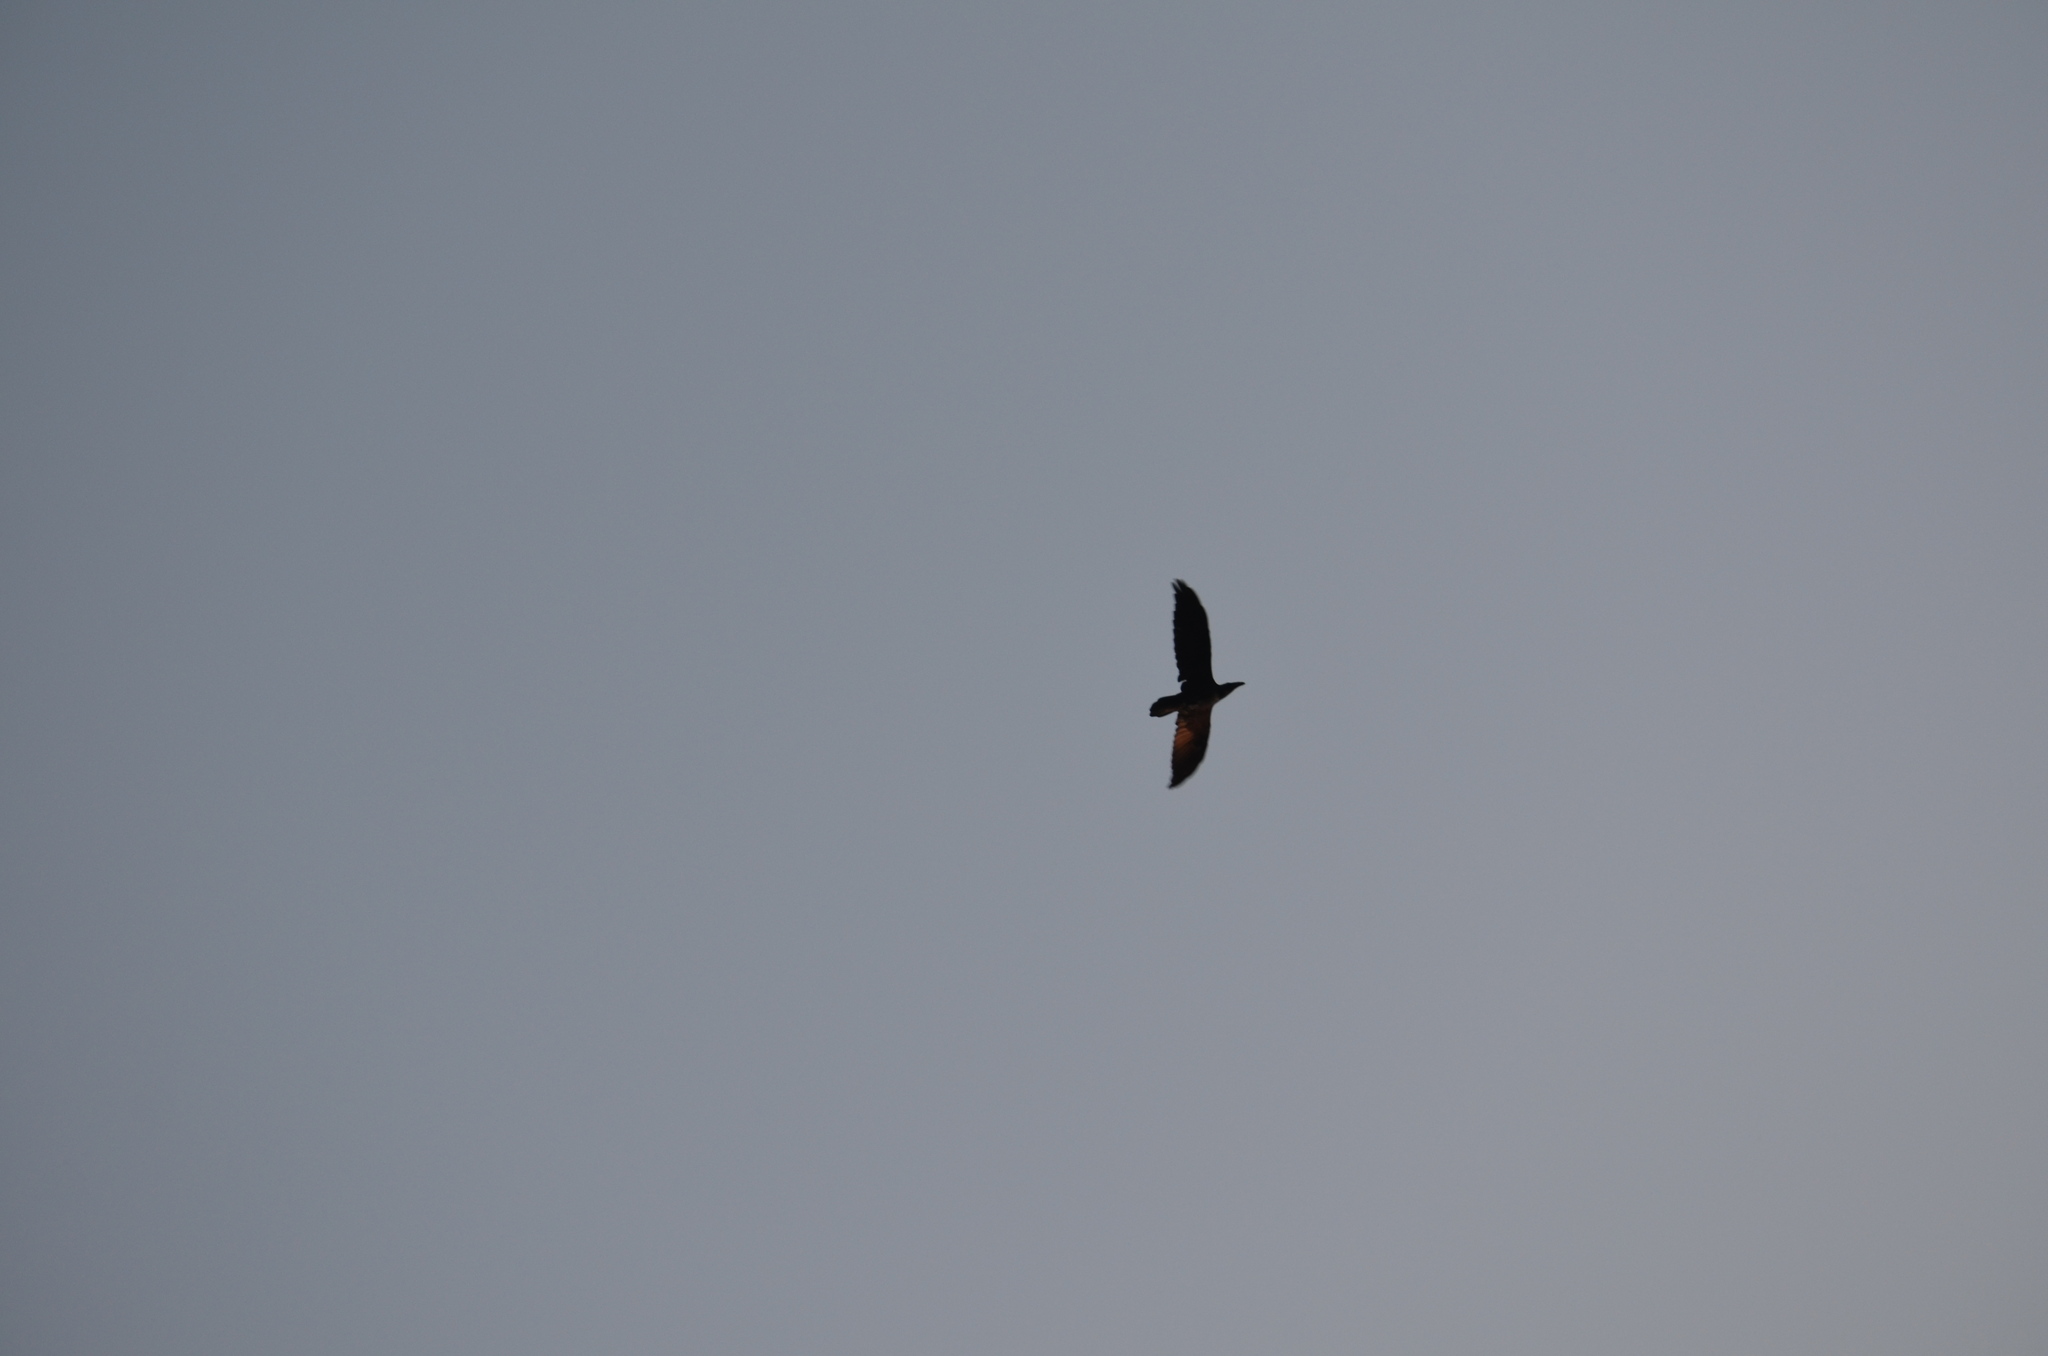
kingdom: Animalia
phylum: Chordata
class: Aves
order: Passeriformes
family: Corvidae
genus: Corvus
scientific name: Corvus corax
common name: Common raven
